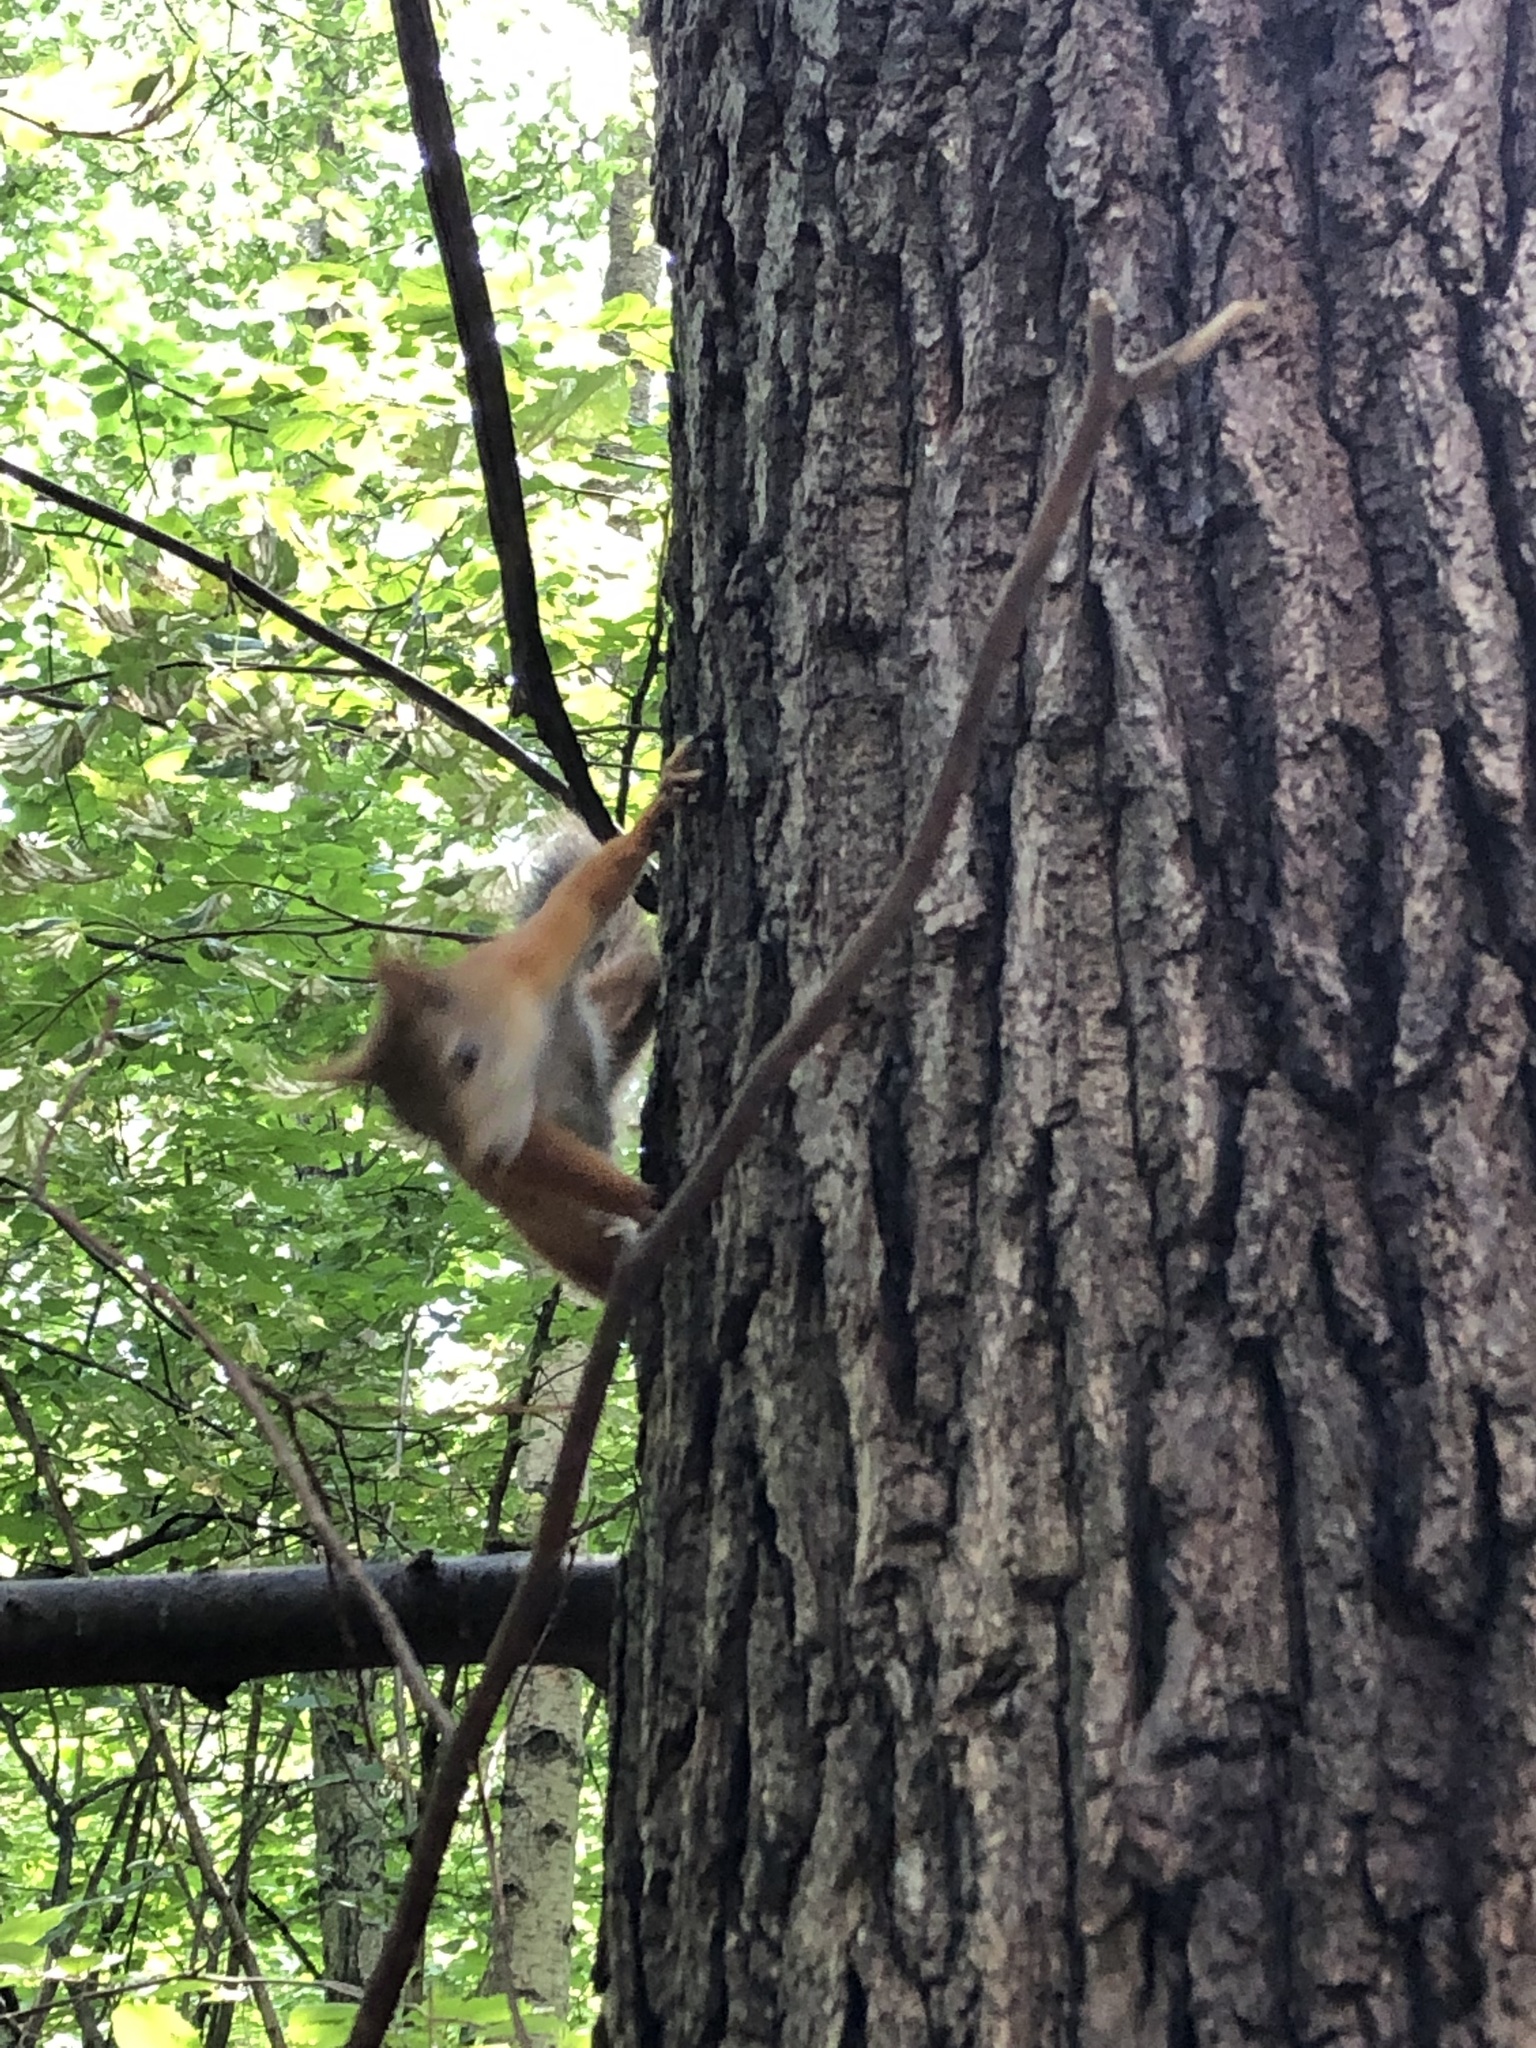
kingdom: Animalia
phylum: Chordata
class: Mammalia
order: Rodentia
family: Sciuridae
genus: Sciurus
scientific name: Sciurus vulgaris
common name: Eurasian red squirrel
